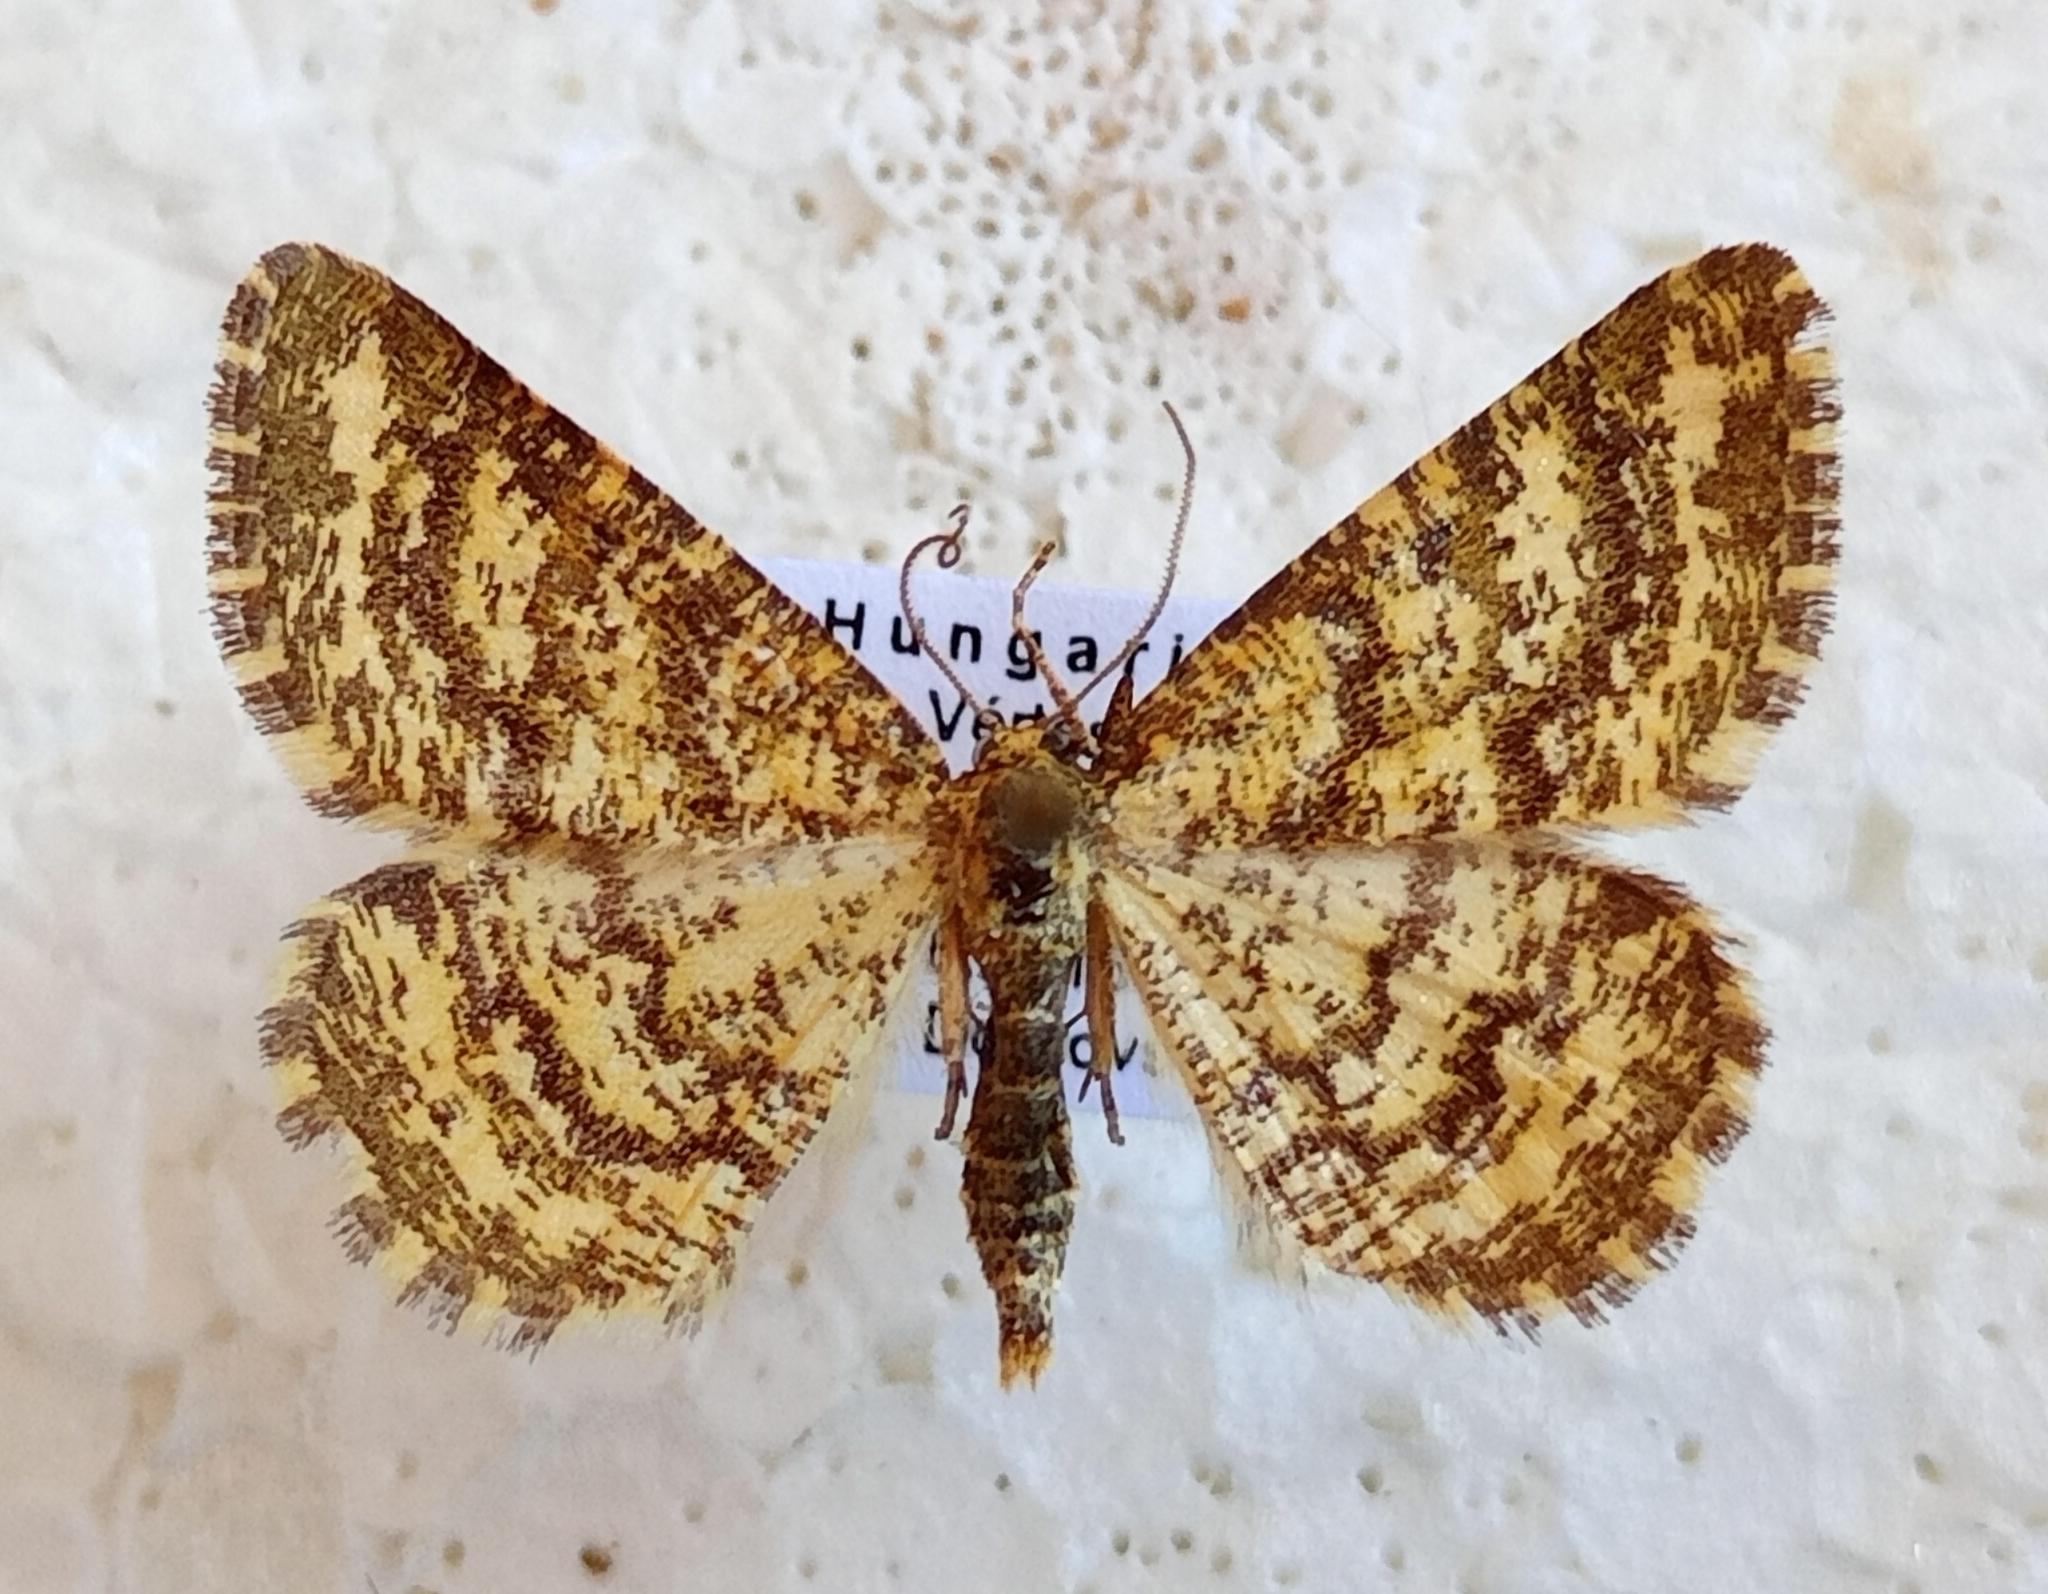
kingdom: Animalia
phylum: Arthropoda
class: Insecta
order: Lepidoptera
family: Geometridae
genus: Heliomata
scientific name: Heliomata glarearia
